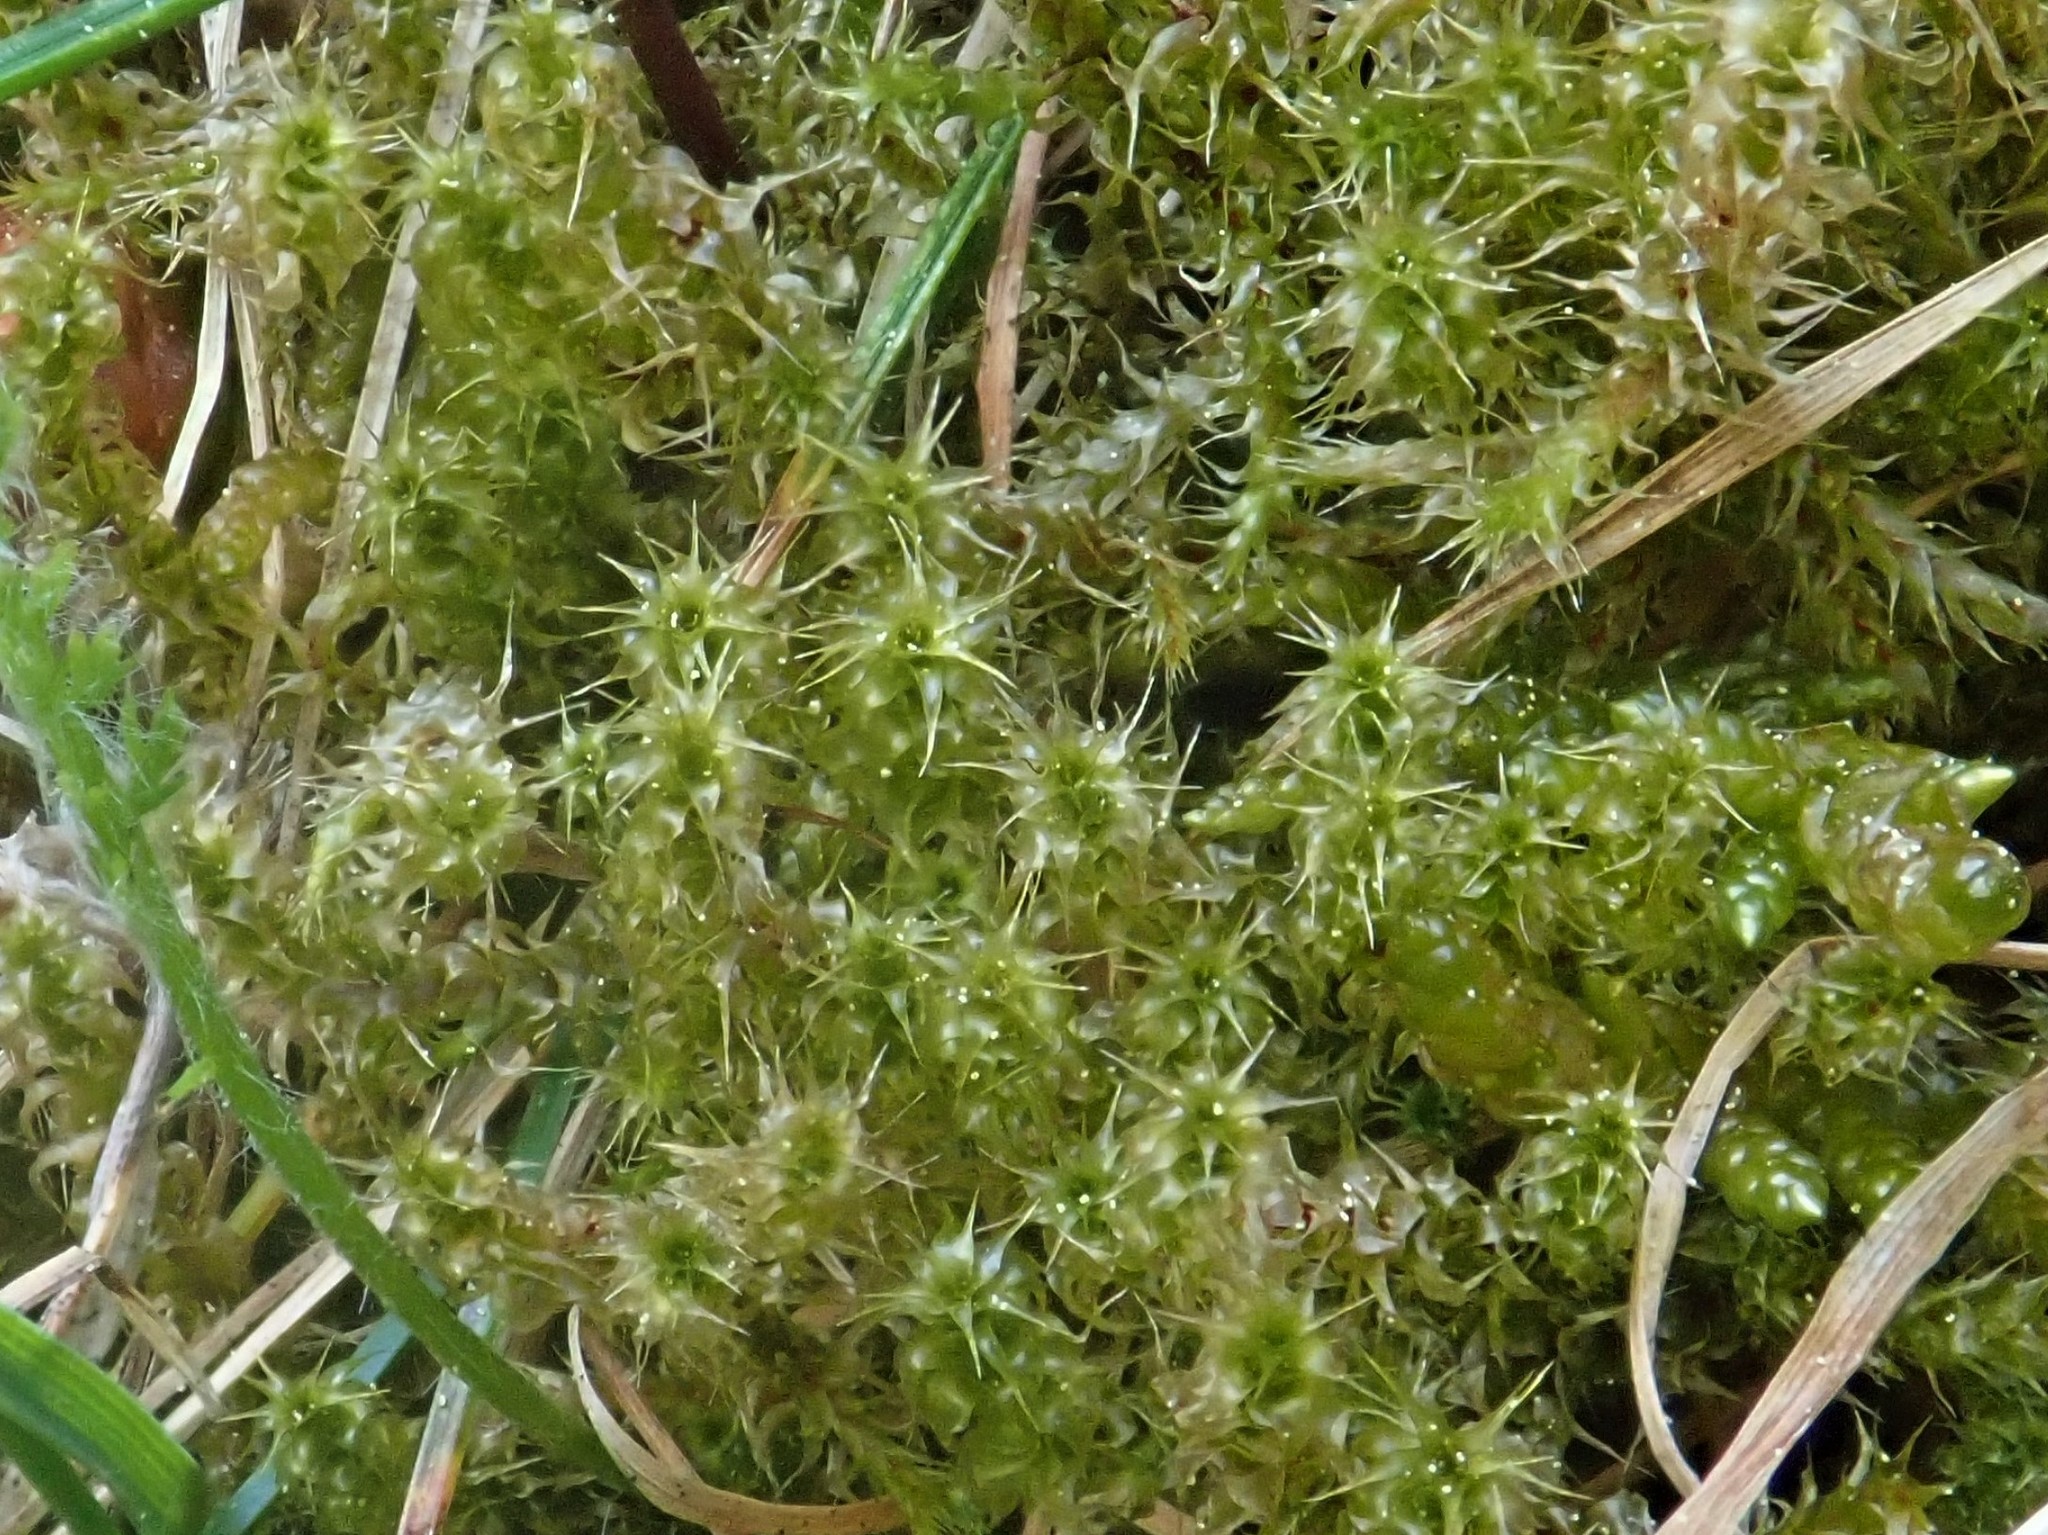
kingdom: Plantae
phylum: Bryophyta
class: Bryopsida
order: Hypnales
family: Hylocomiaceae
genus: Rhytidiadelphus
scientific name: Rhytidiadelphus squarrosus
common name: Springy turf-moss
